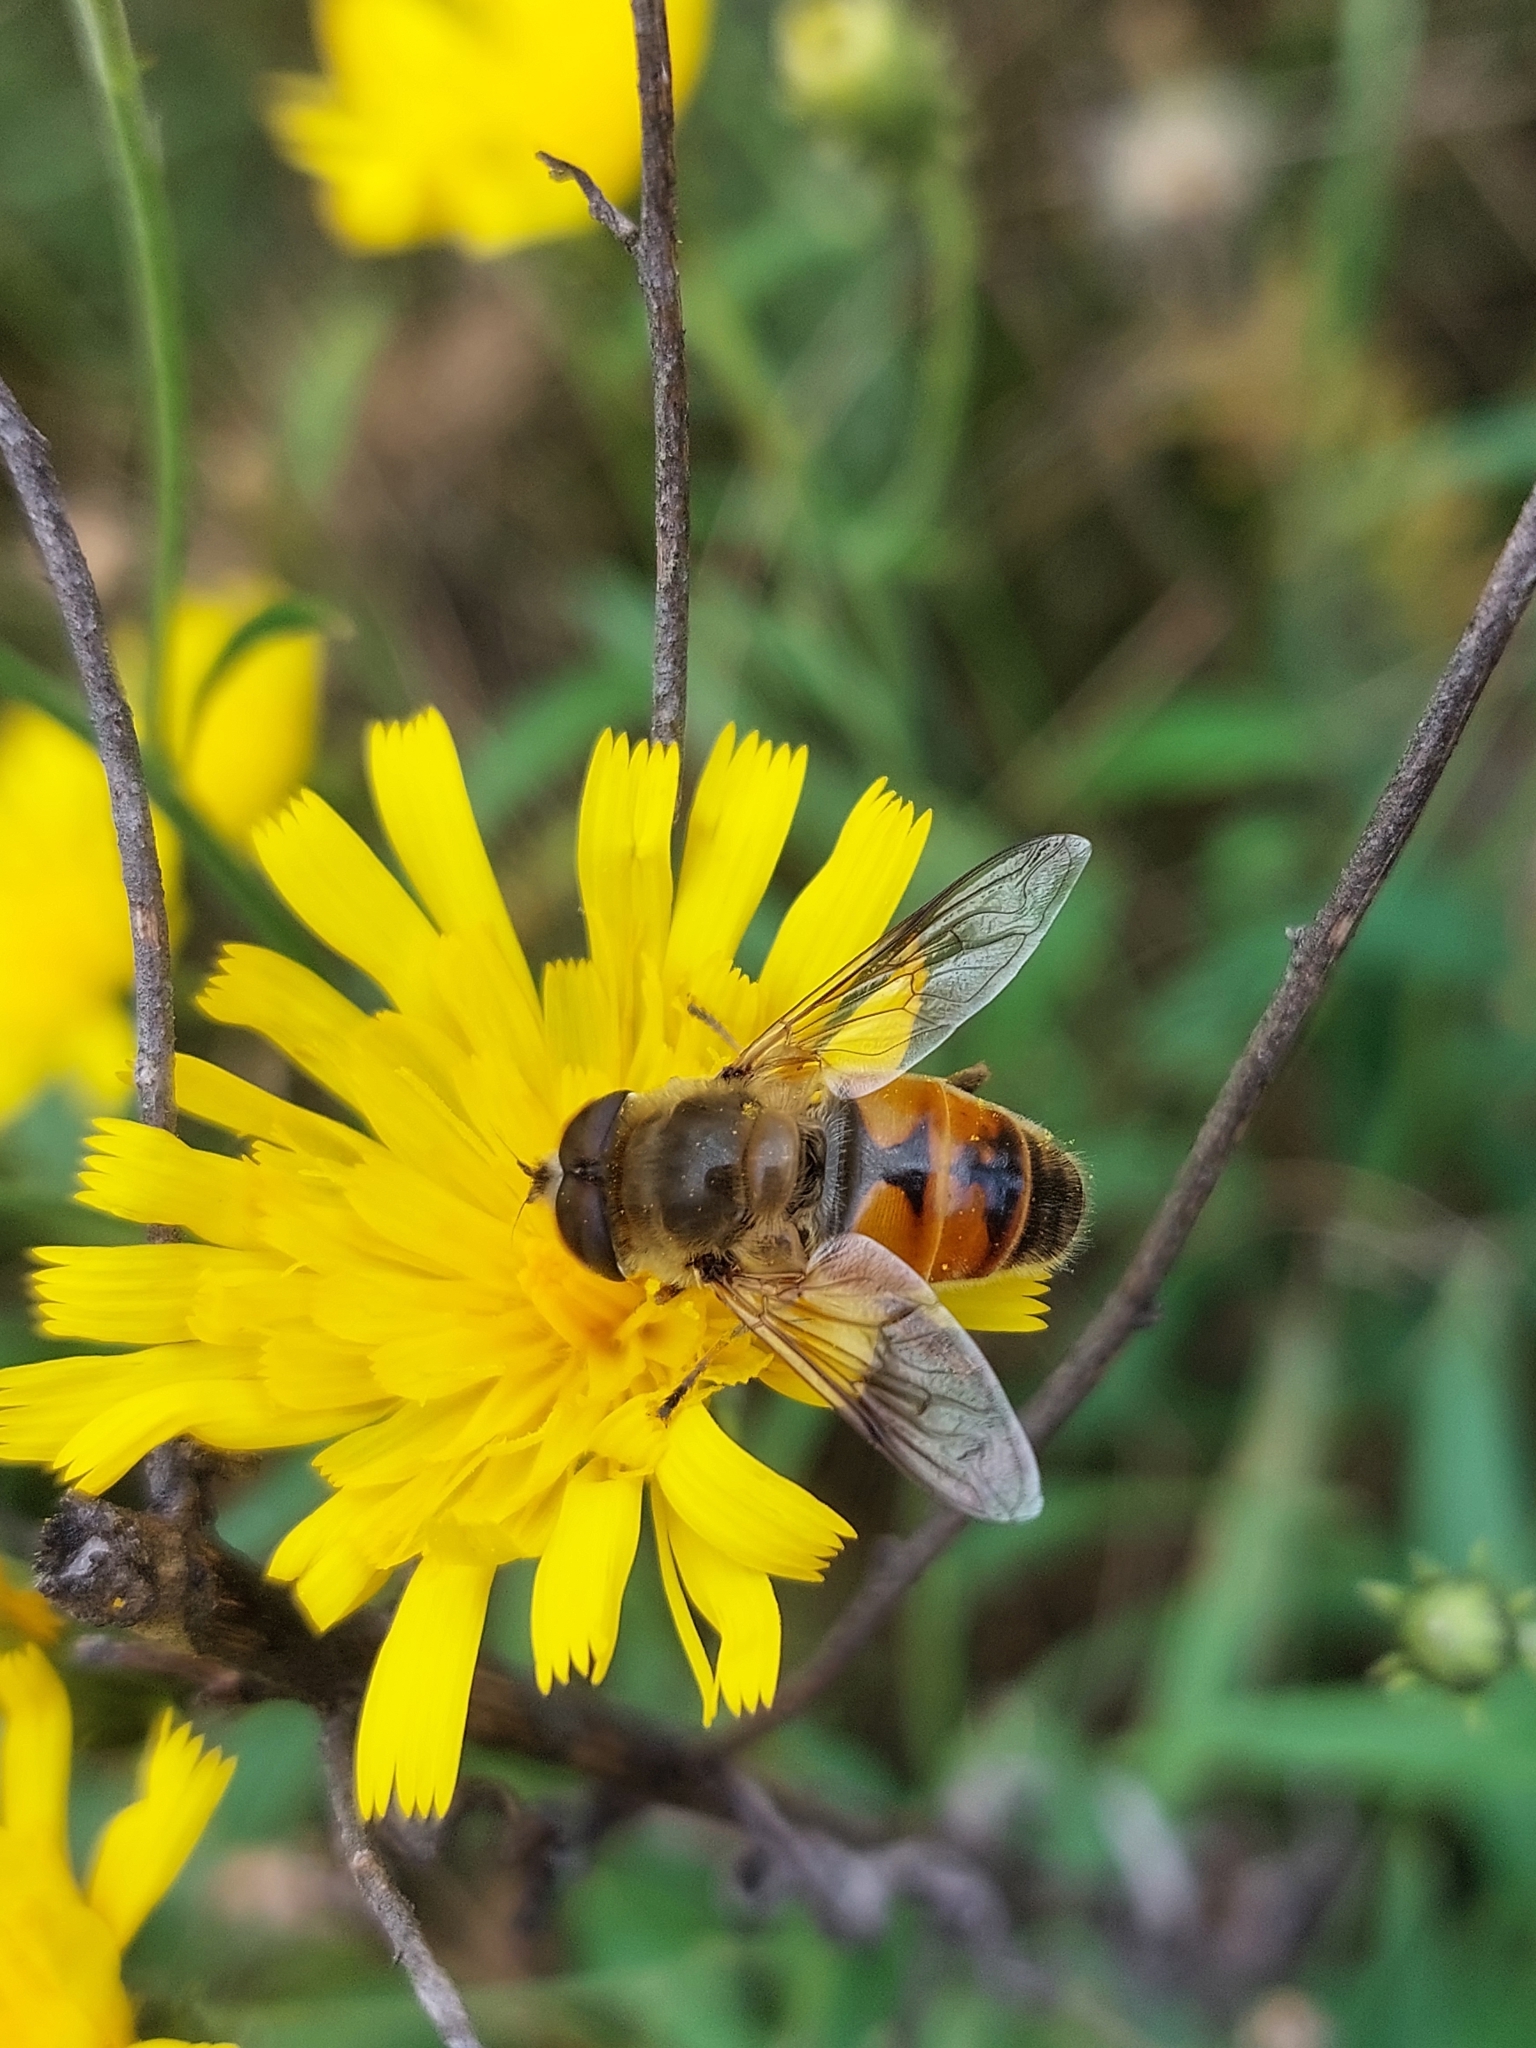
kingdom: Animalia
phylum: Arthropoda
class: Insecta
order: Diptera
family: Syrphidae
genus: Eristalis
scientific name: Eristalis tenax
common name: Drone fly
